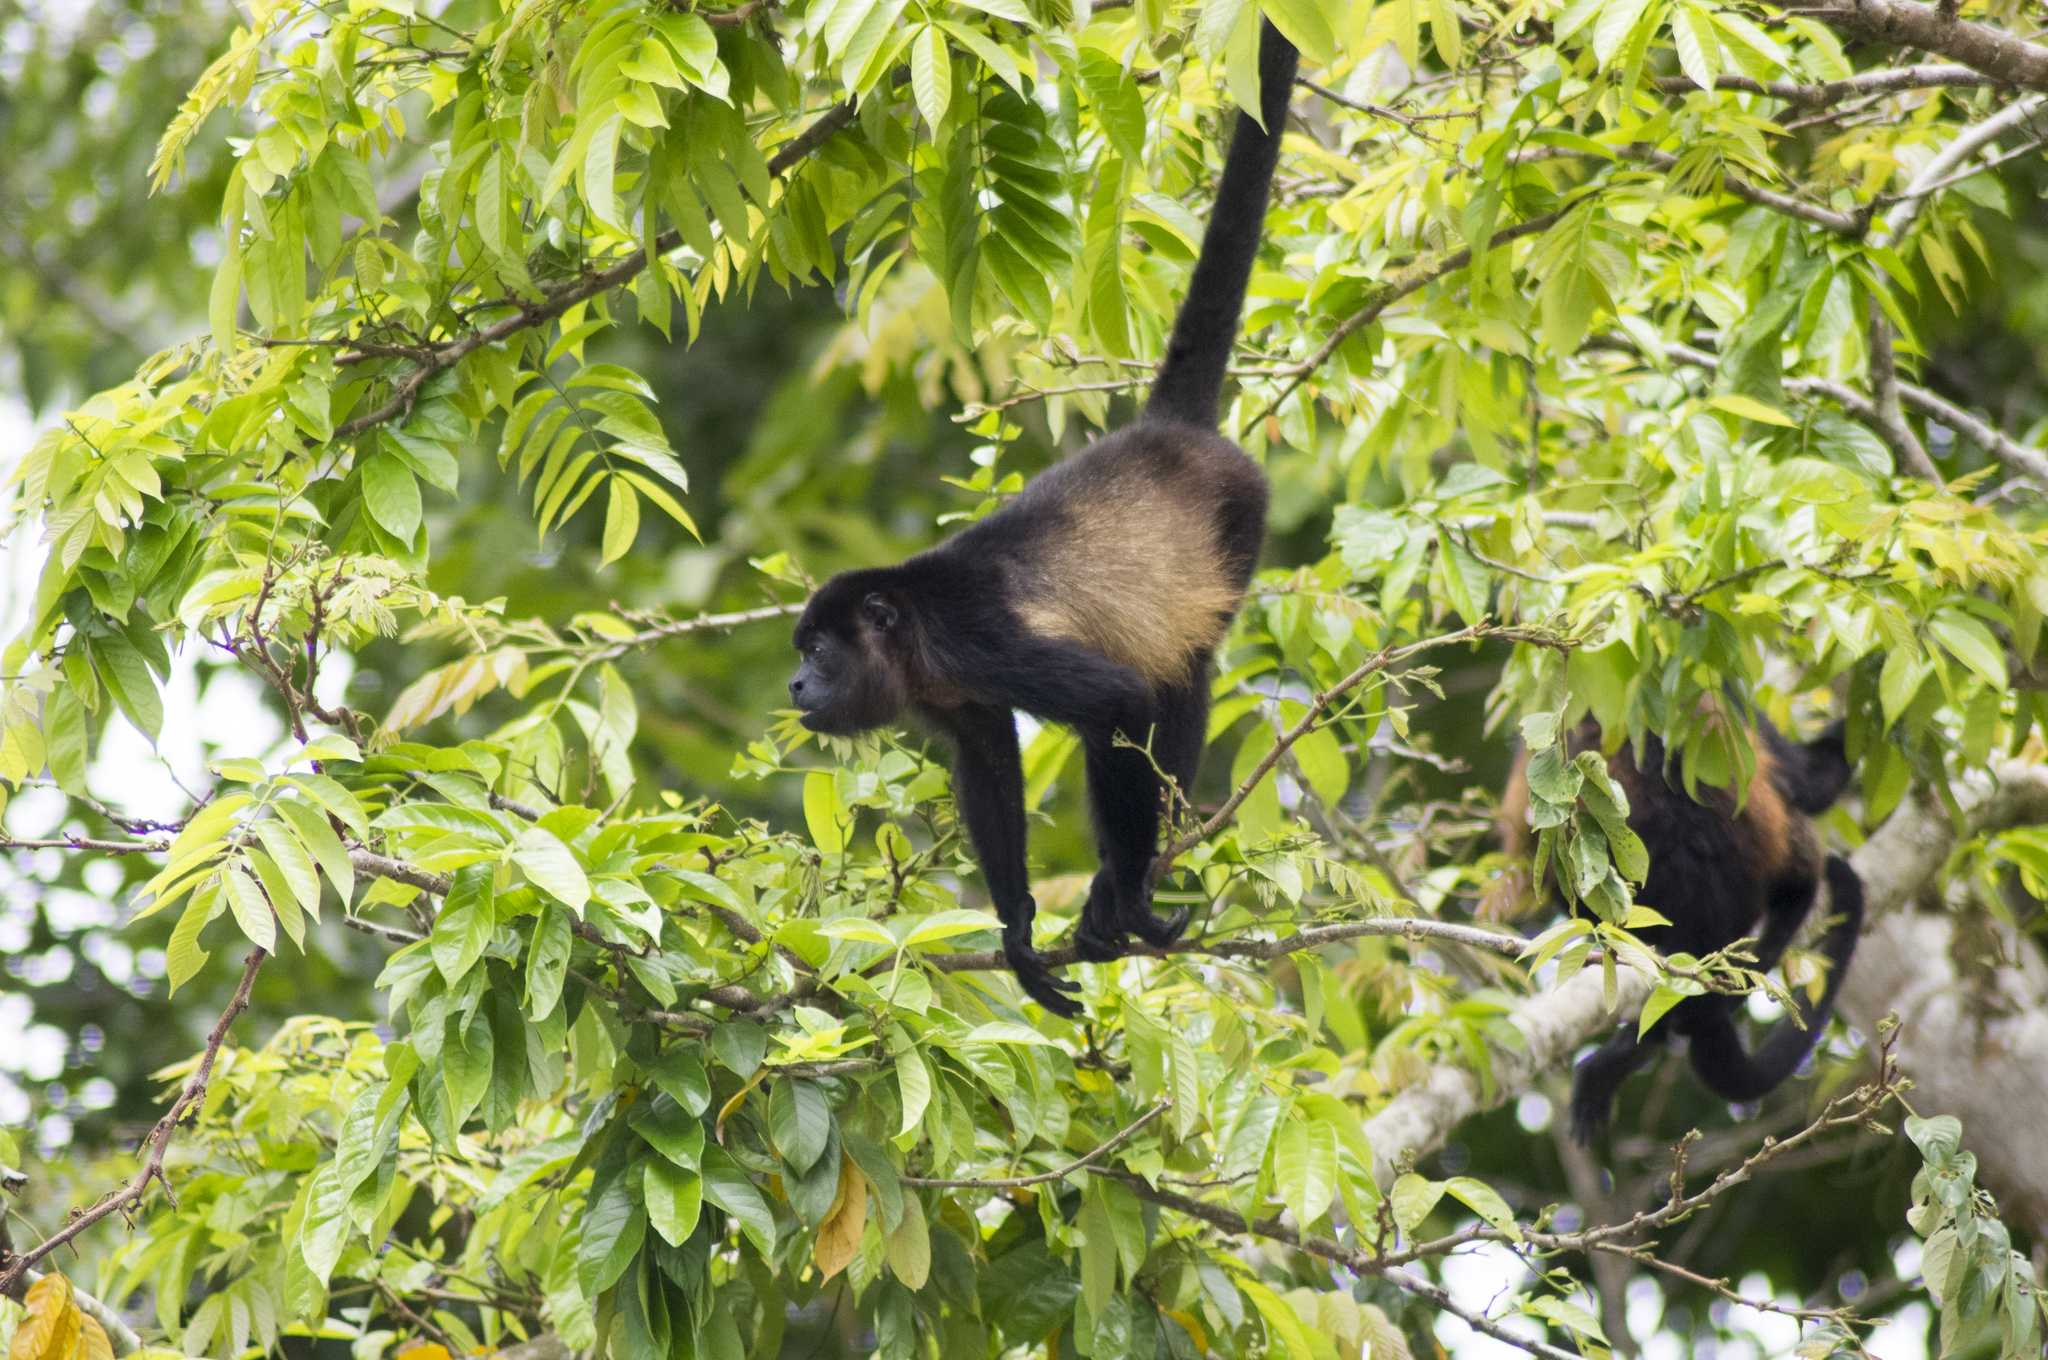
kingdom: Animalia
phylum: Chordata
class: Mammalia
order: Primates
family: Atelidae
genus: Alouatta
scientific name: Alouatta palliata
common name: Mantled howler
